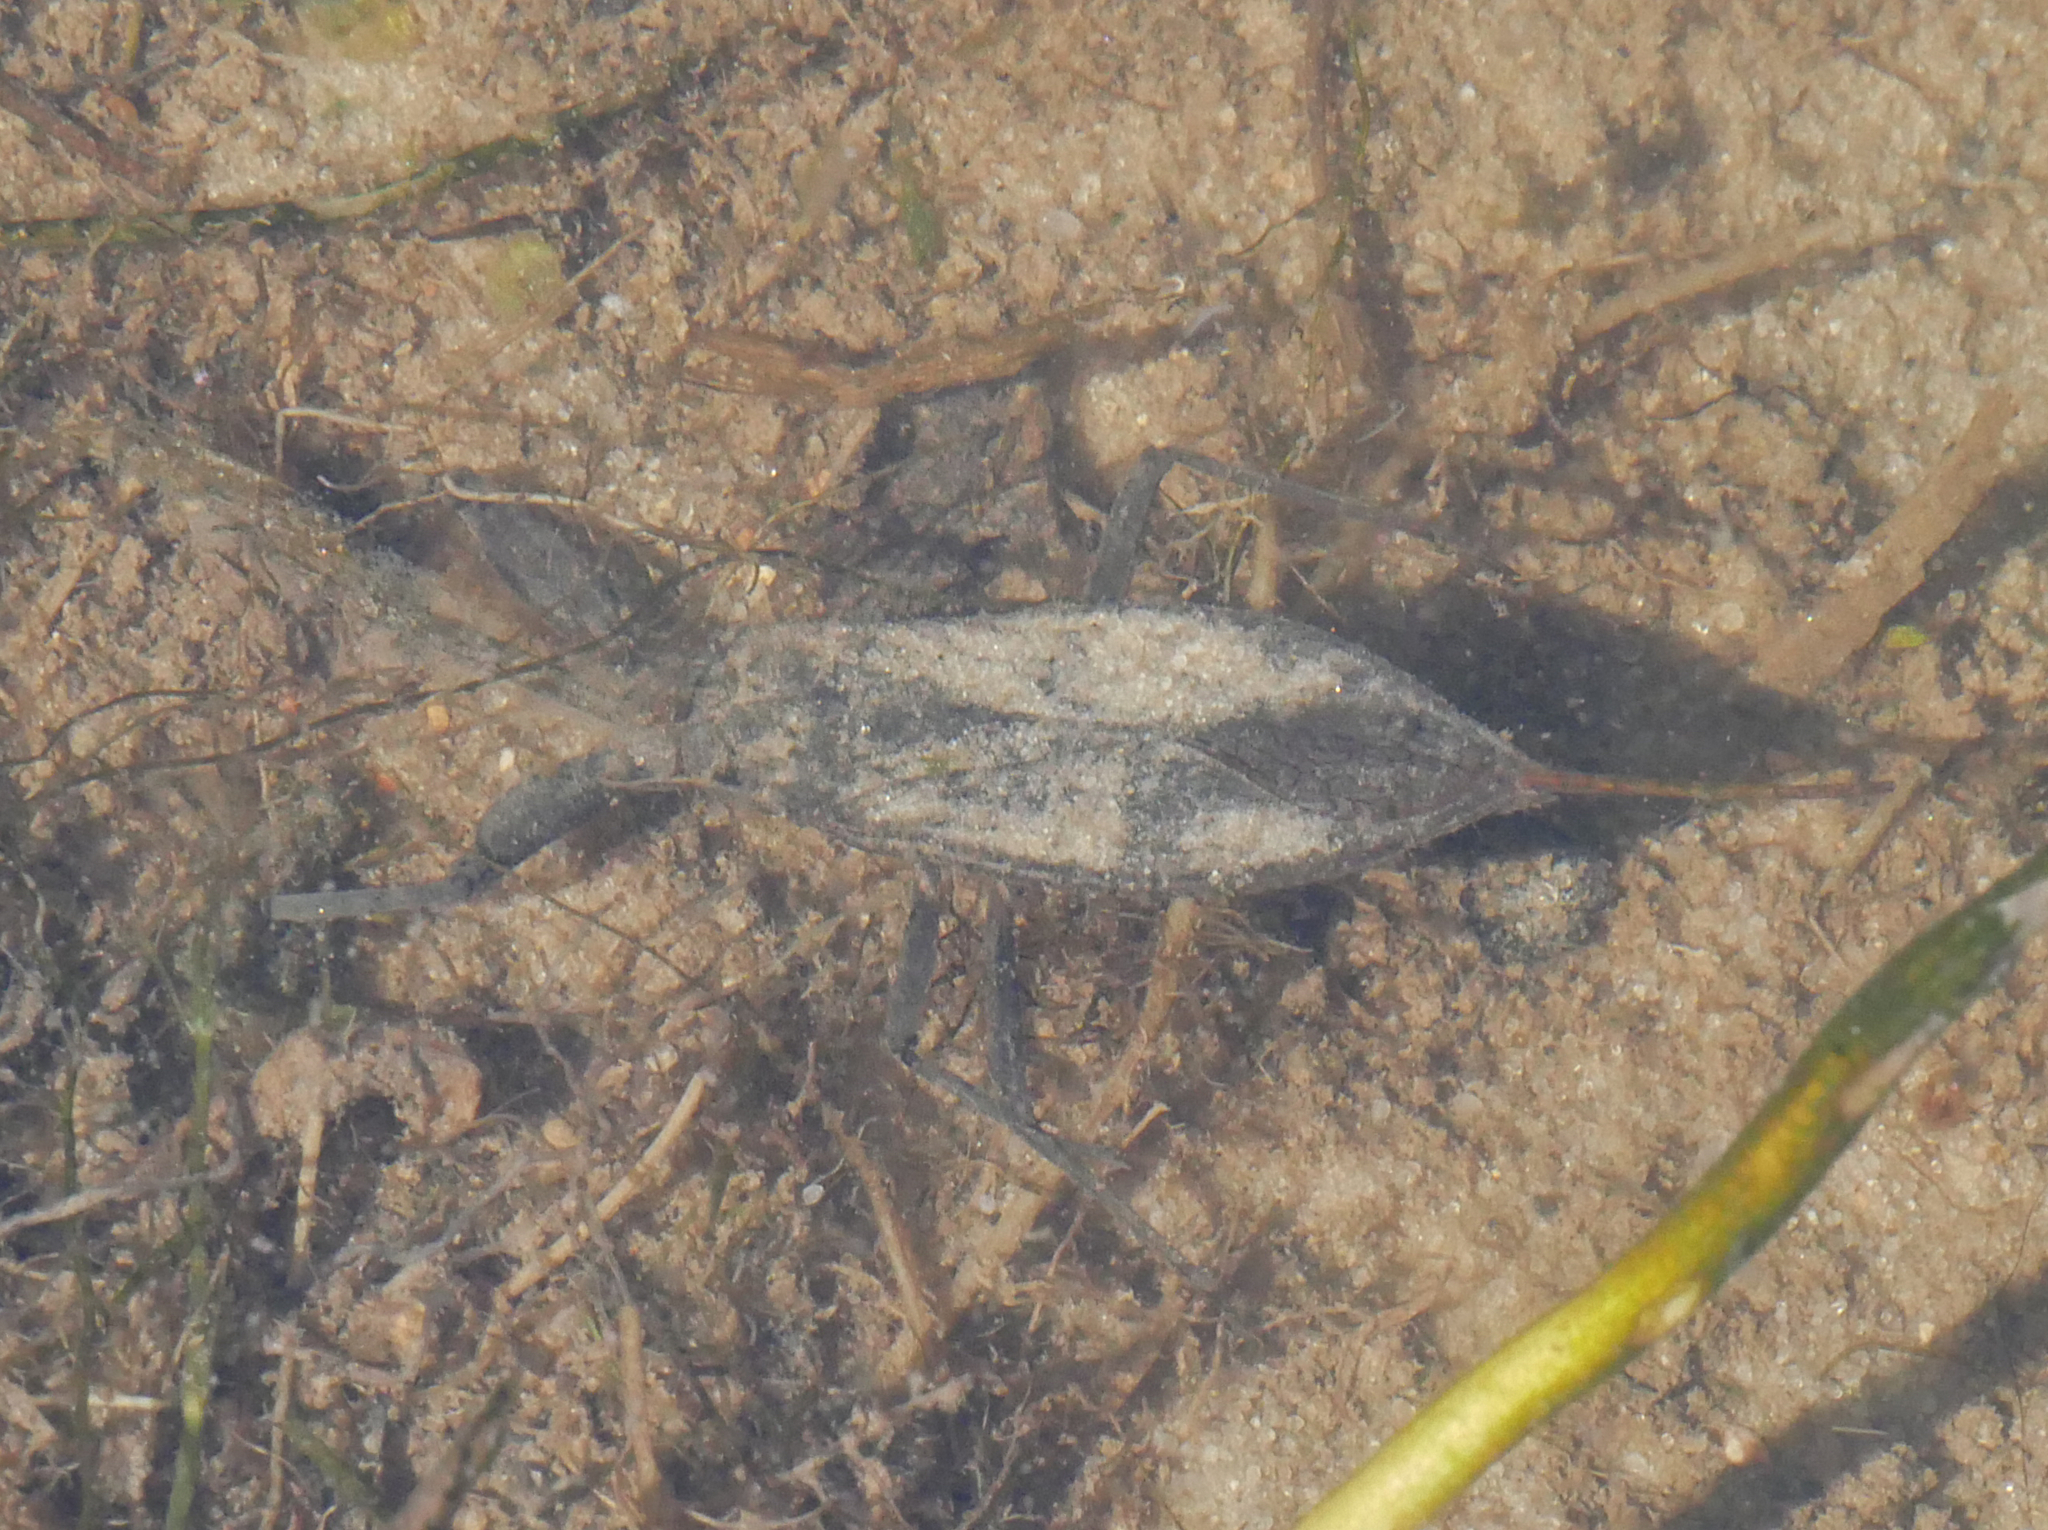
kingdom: Animalia
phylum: Arthropoda
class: Insecta
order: Hemiptera
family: Nepidae
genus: Nepa
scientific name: Nepa cinerea
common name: Water scorpion
